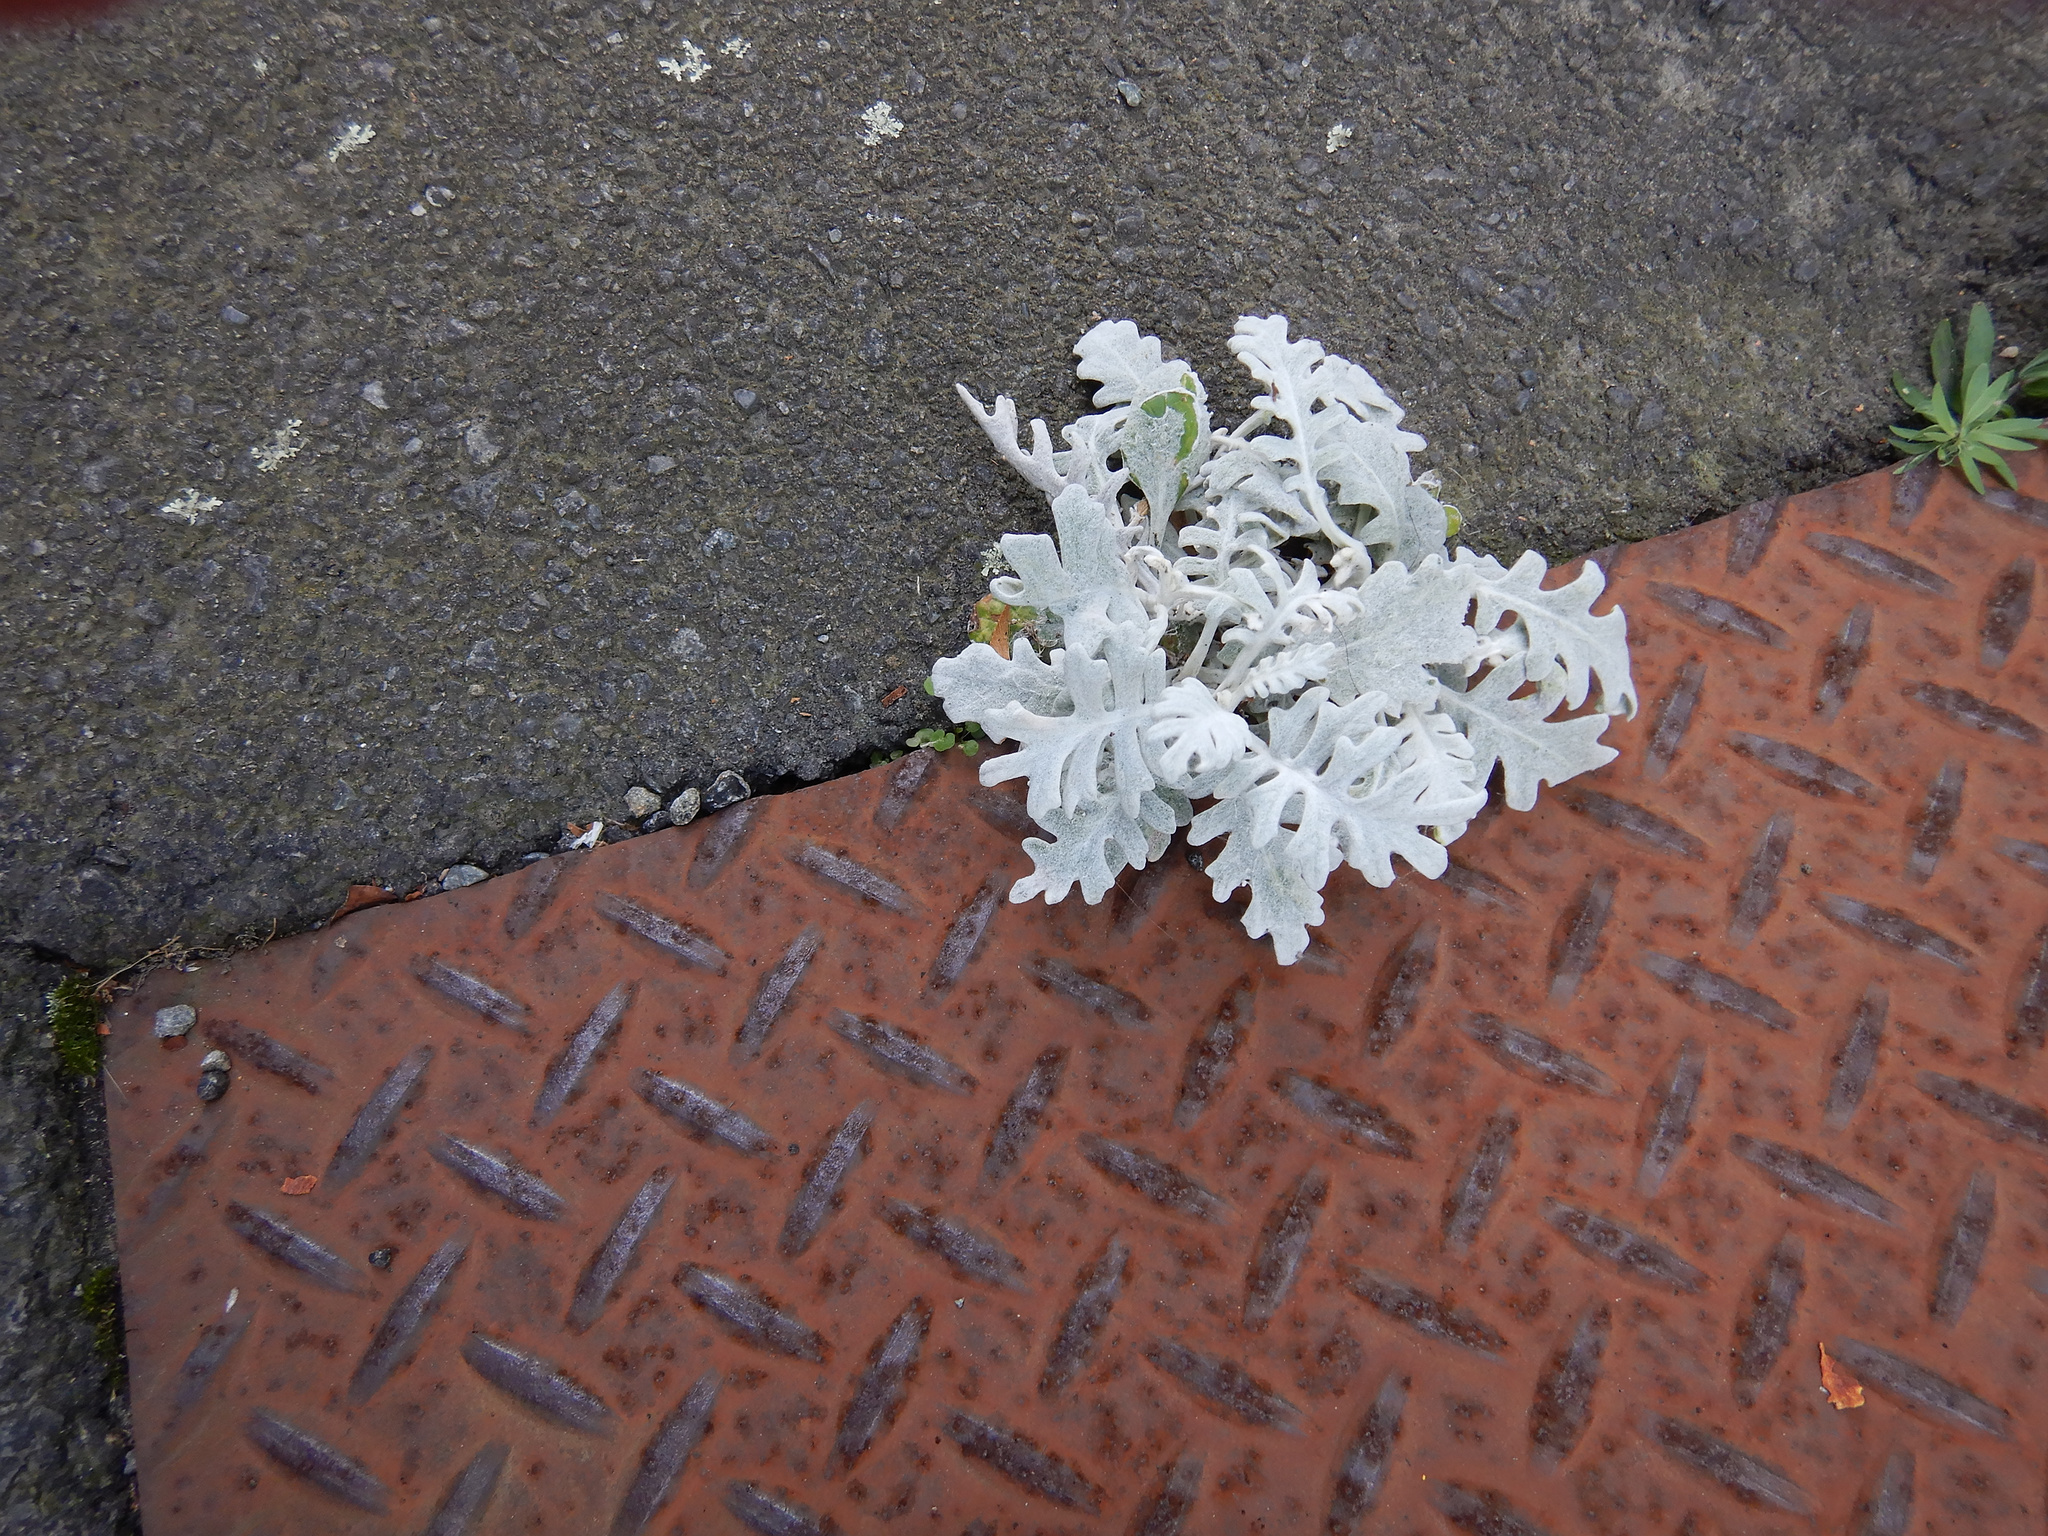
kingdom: Plantae
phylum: Tracheophyta
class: Magnoliopsida
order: Asterales
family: Asteraceae
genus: Jacobaea
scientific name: Jacobaea maritima
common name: Silver ragwort
